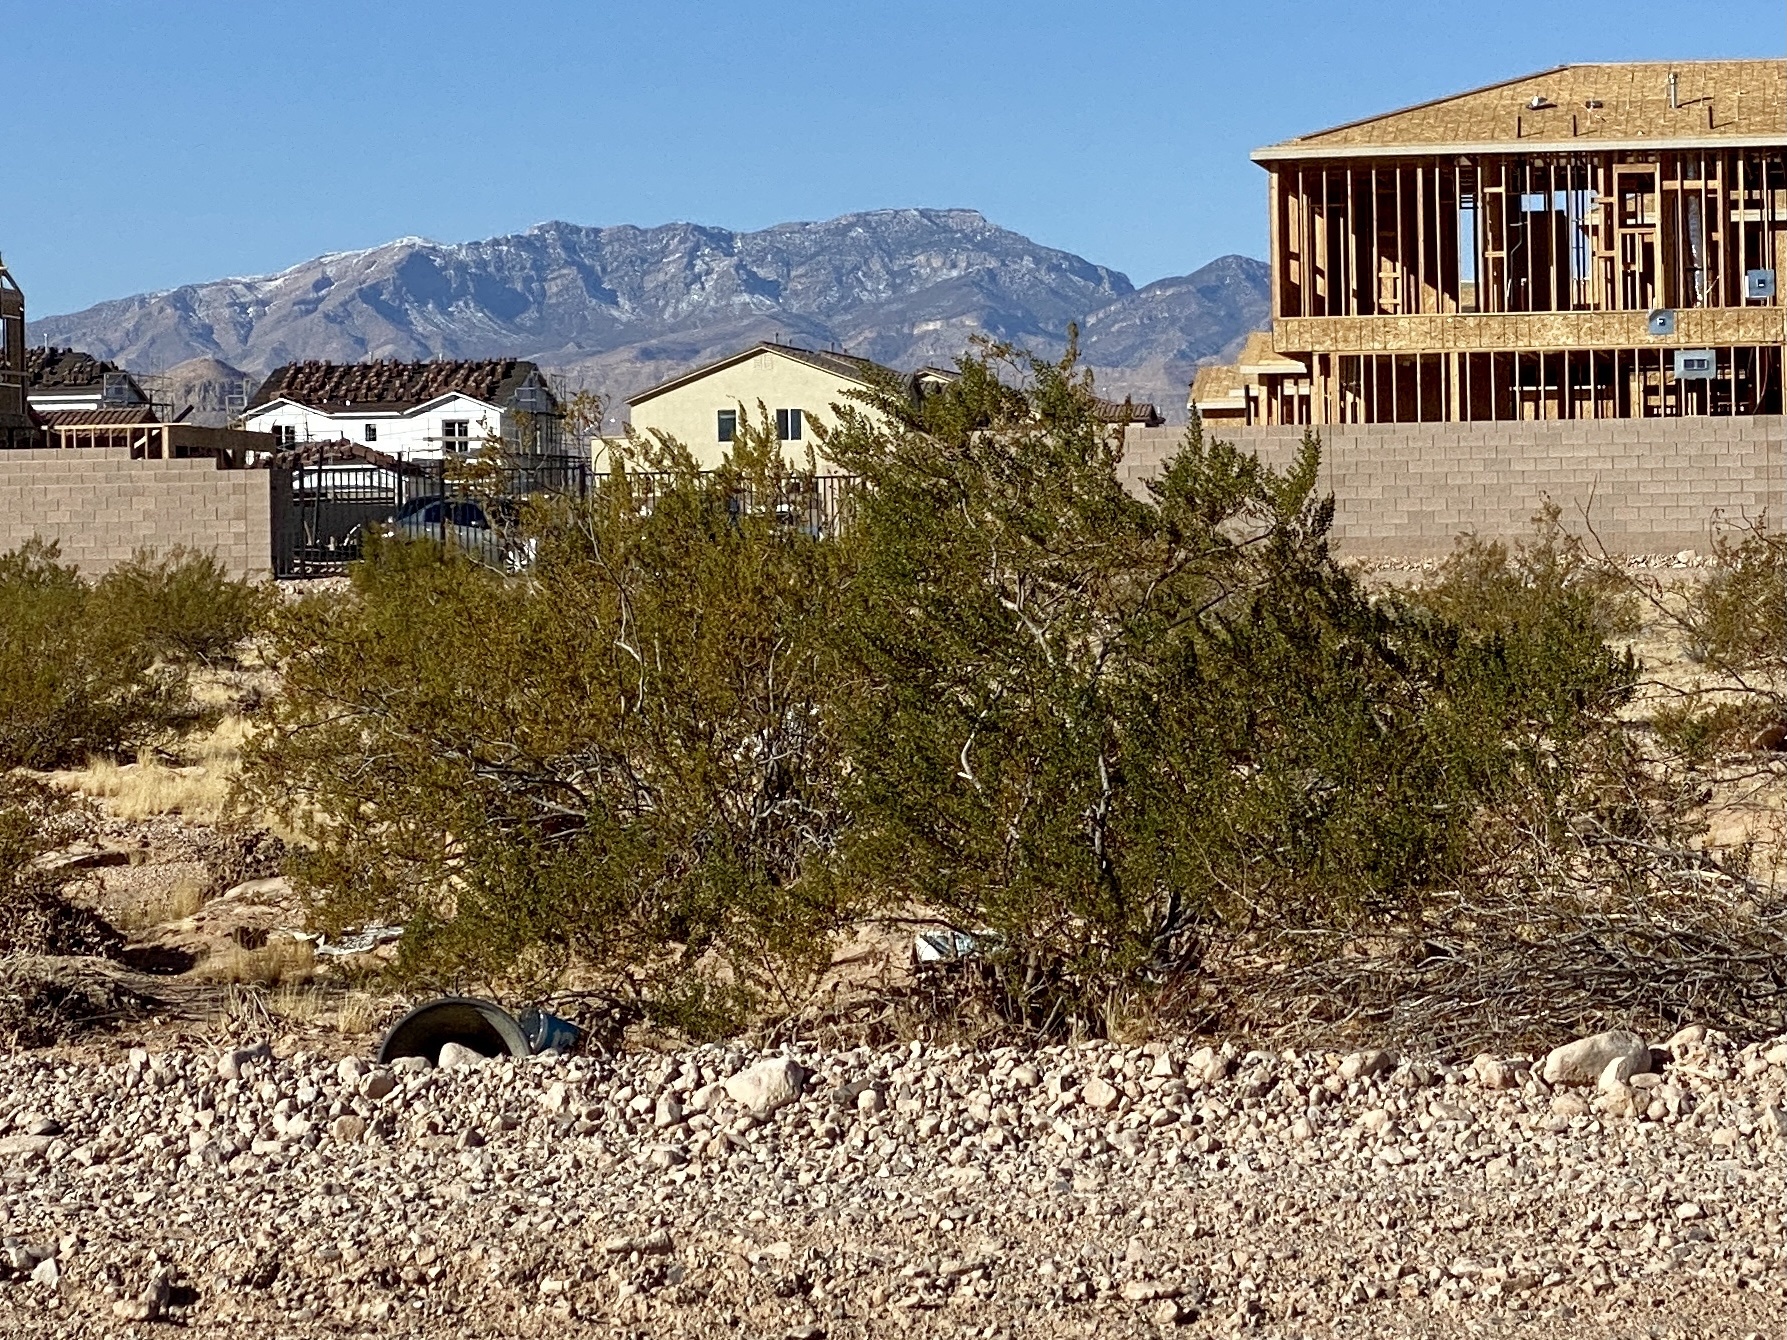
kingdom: Plantae
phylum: Tracheophyta
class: Magnoliopsida
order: Zygophyllales
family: Zygophyllaceae
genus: Larrea
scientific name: Larrea tridentata
